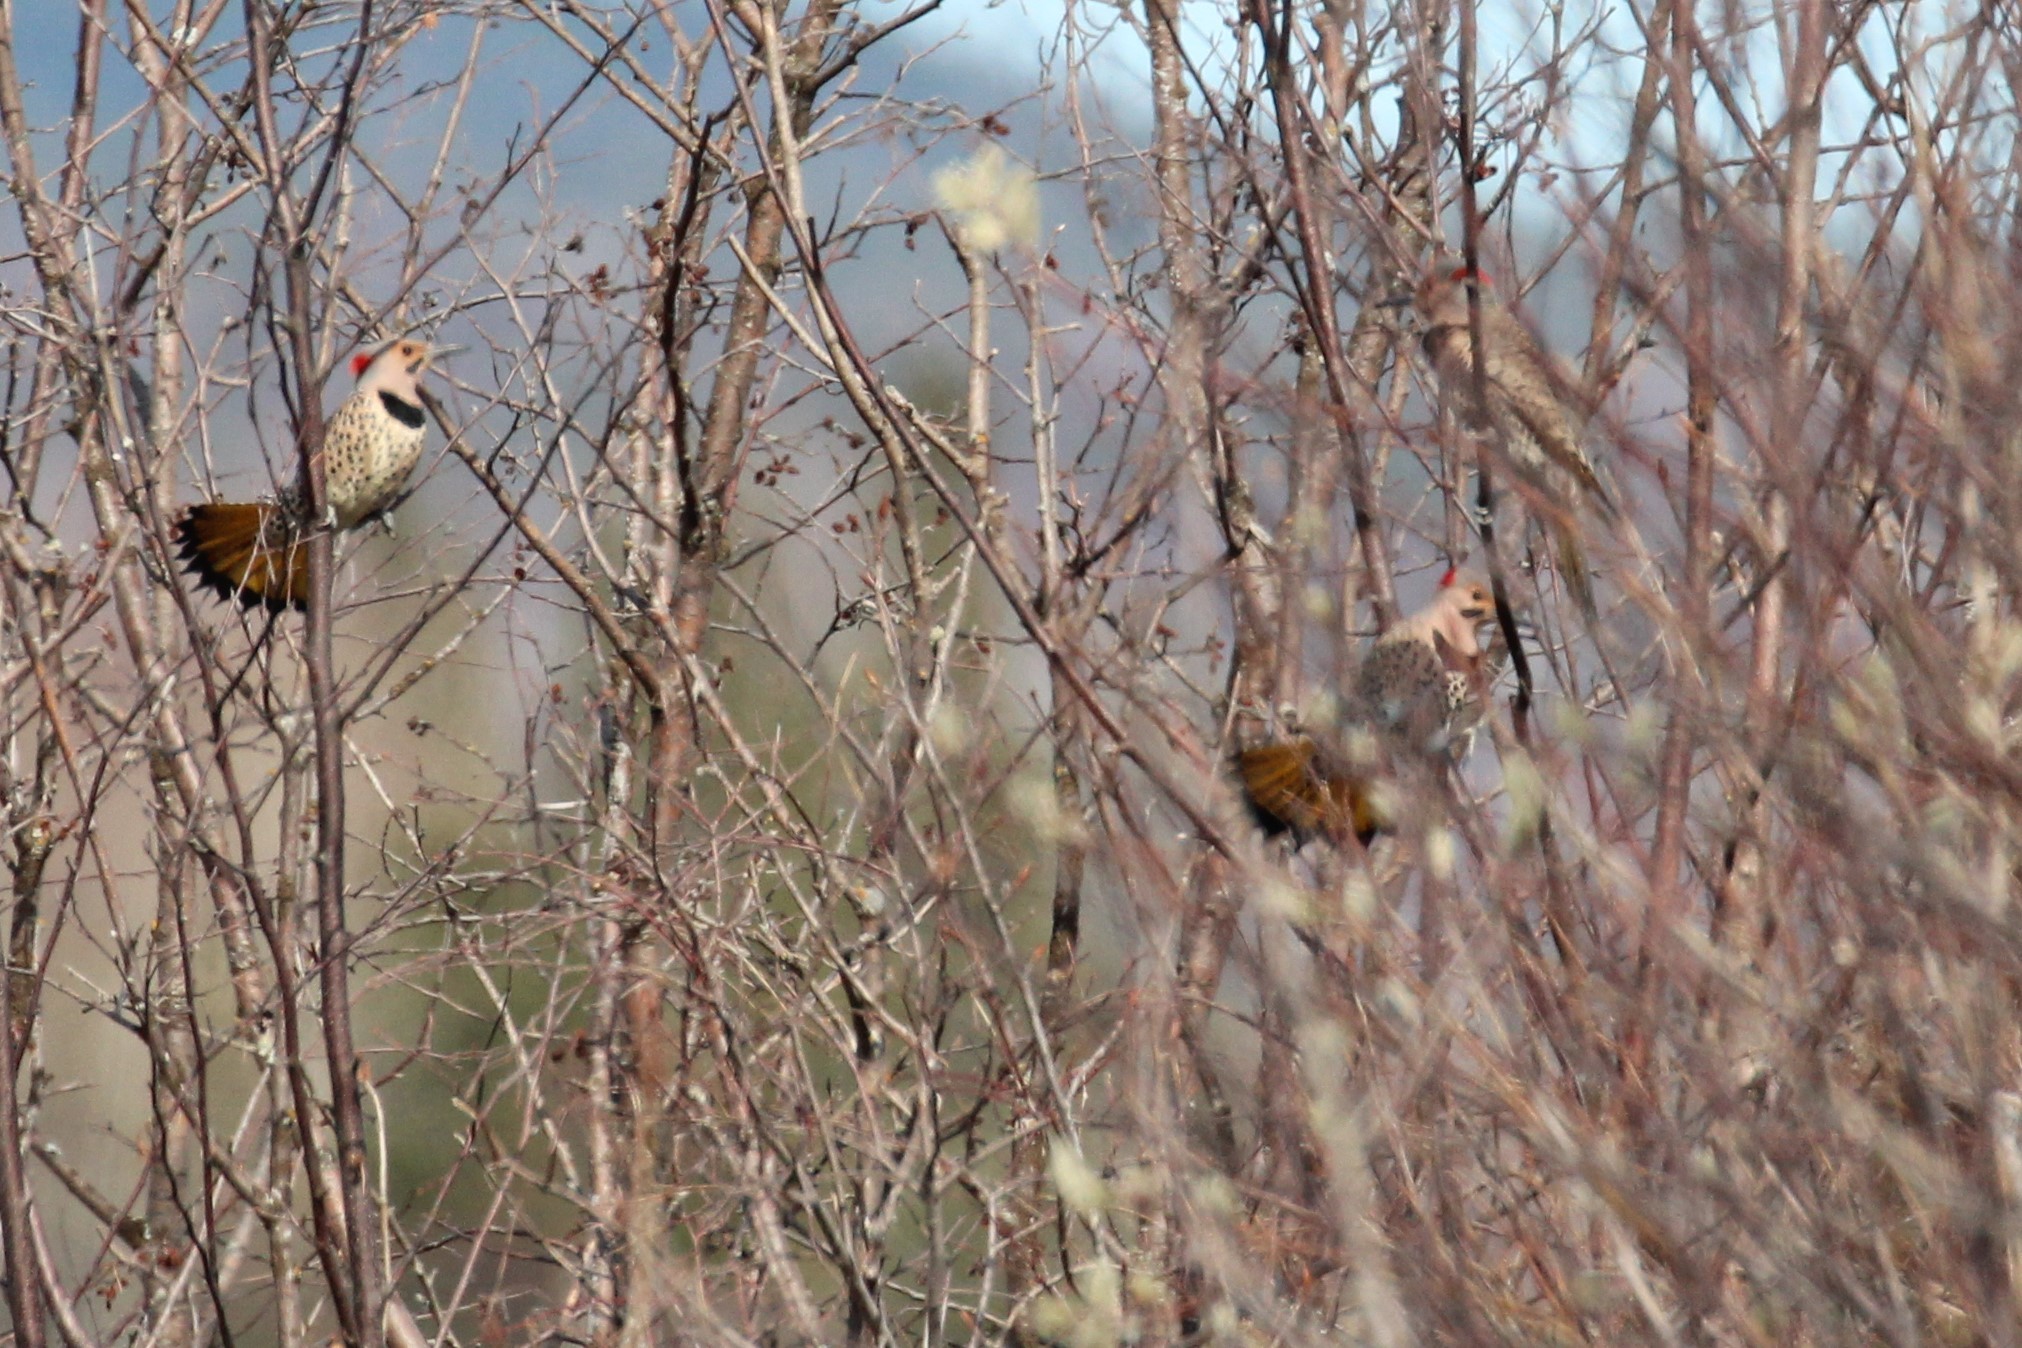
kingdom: Animalia
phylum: Chordata
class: Aves
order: Piciformes
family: Picidae
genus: Colaptes
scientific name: Colaptes auratus
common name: Northern flicker
